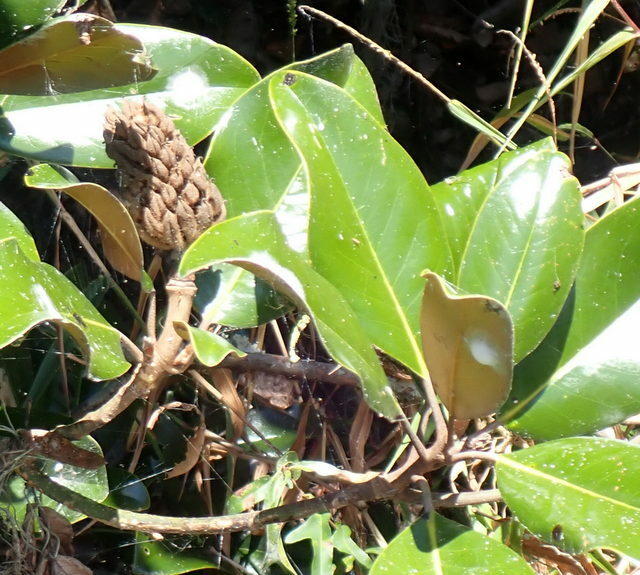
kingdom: Plantae
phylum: Tracheophyta
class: Magnoliopsida
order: Magnoliales
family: Magnoliaceae
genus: Magnolia
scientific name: Magnolia grandiflora
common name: Southern magnolia
